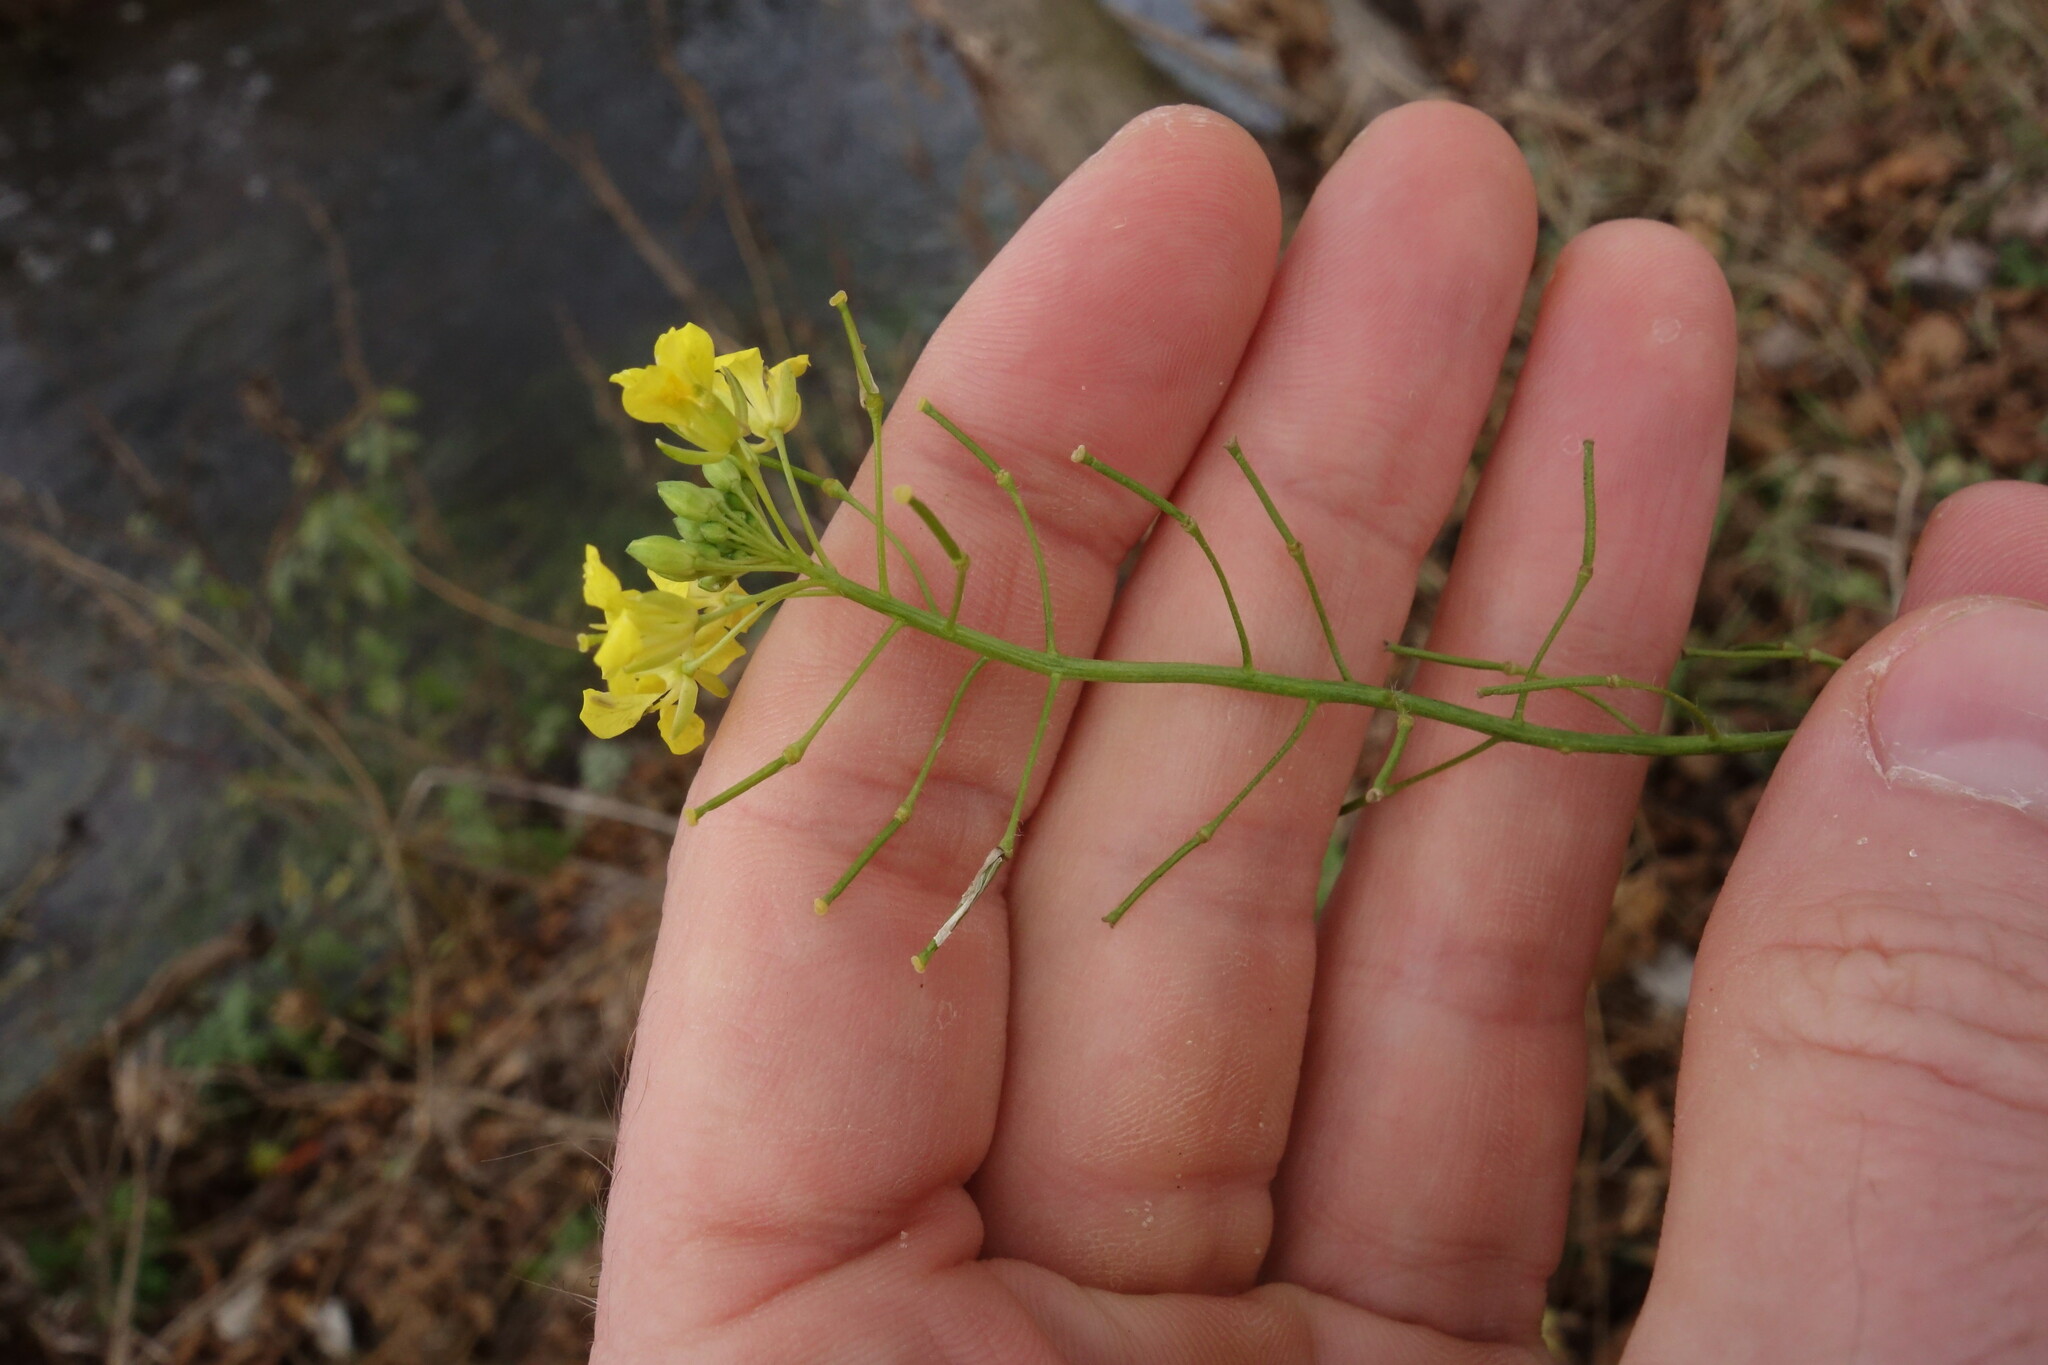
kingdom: Plantae
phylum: Tracheophyta
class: Magnoliopsida
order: Brassicales
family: Brassicaceae
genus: Sisymbrium
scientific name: Sisymbrium loeselii
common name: False london-rocket
